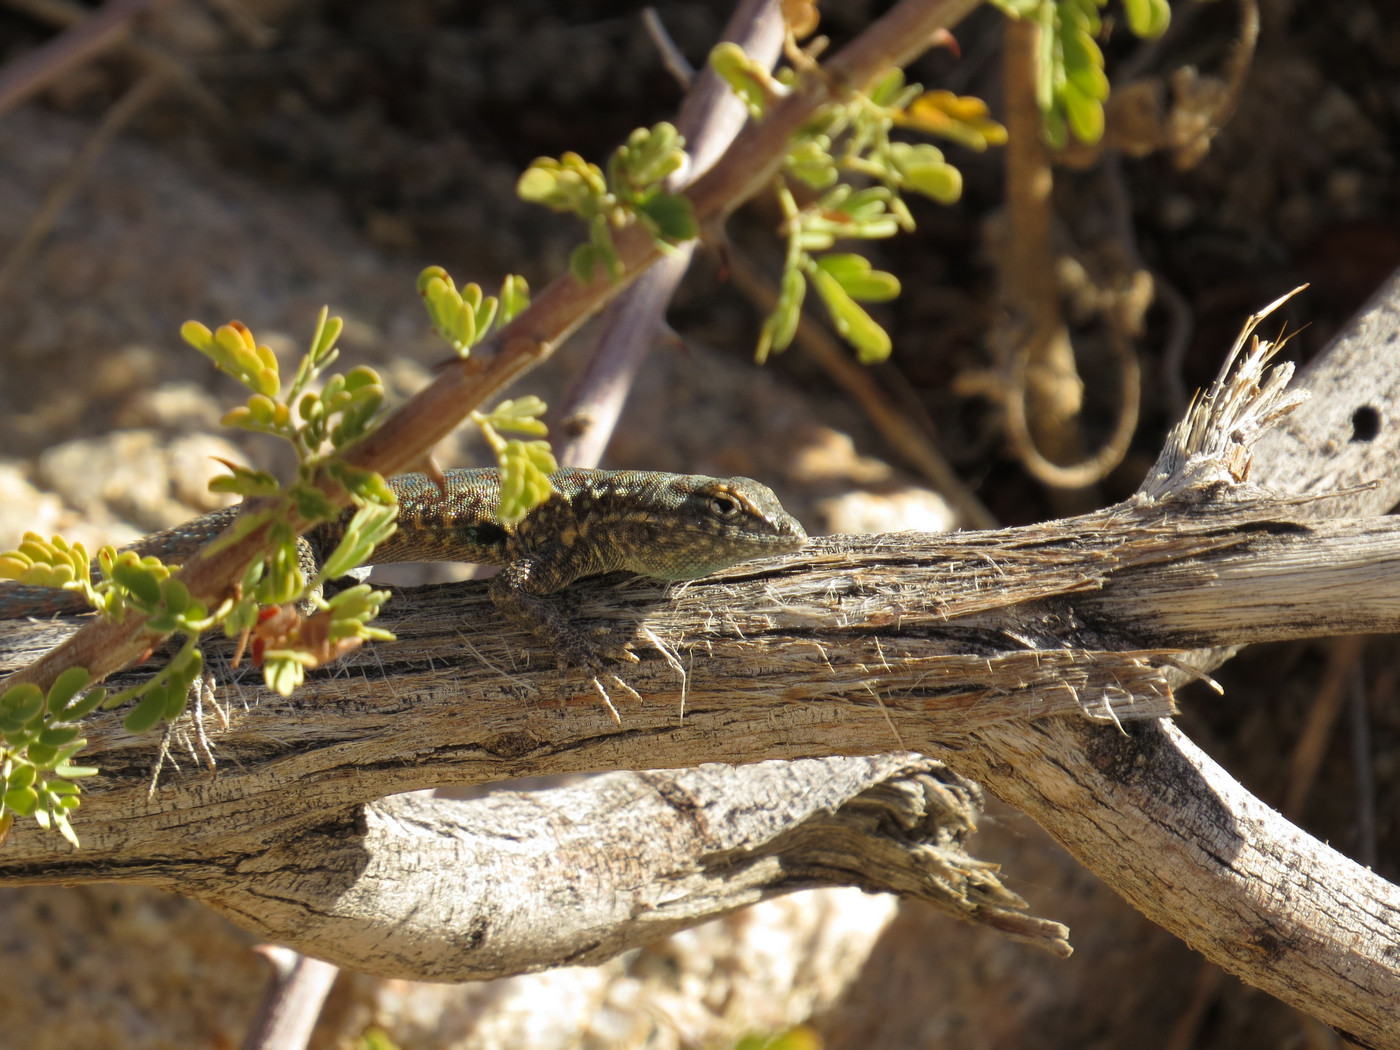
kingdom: Animalia
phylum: Chordata
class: Squamata
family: Phrynosomatidae
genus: Uta
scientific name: Uta stansburiana
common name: Side-blotched lizard
